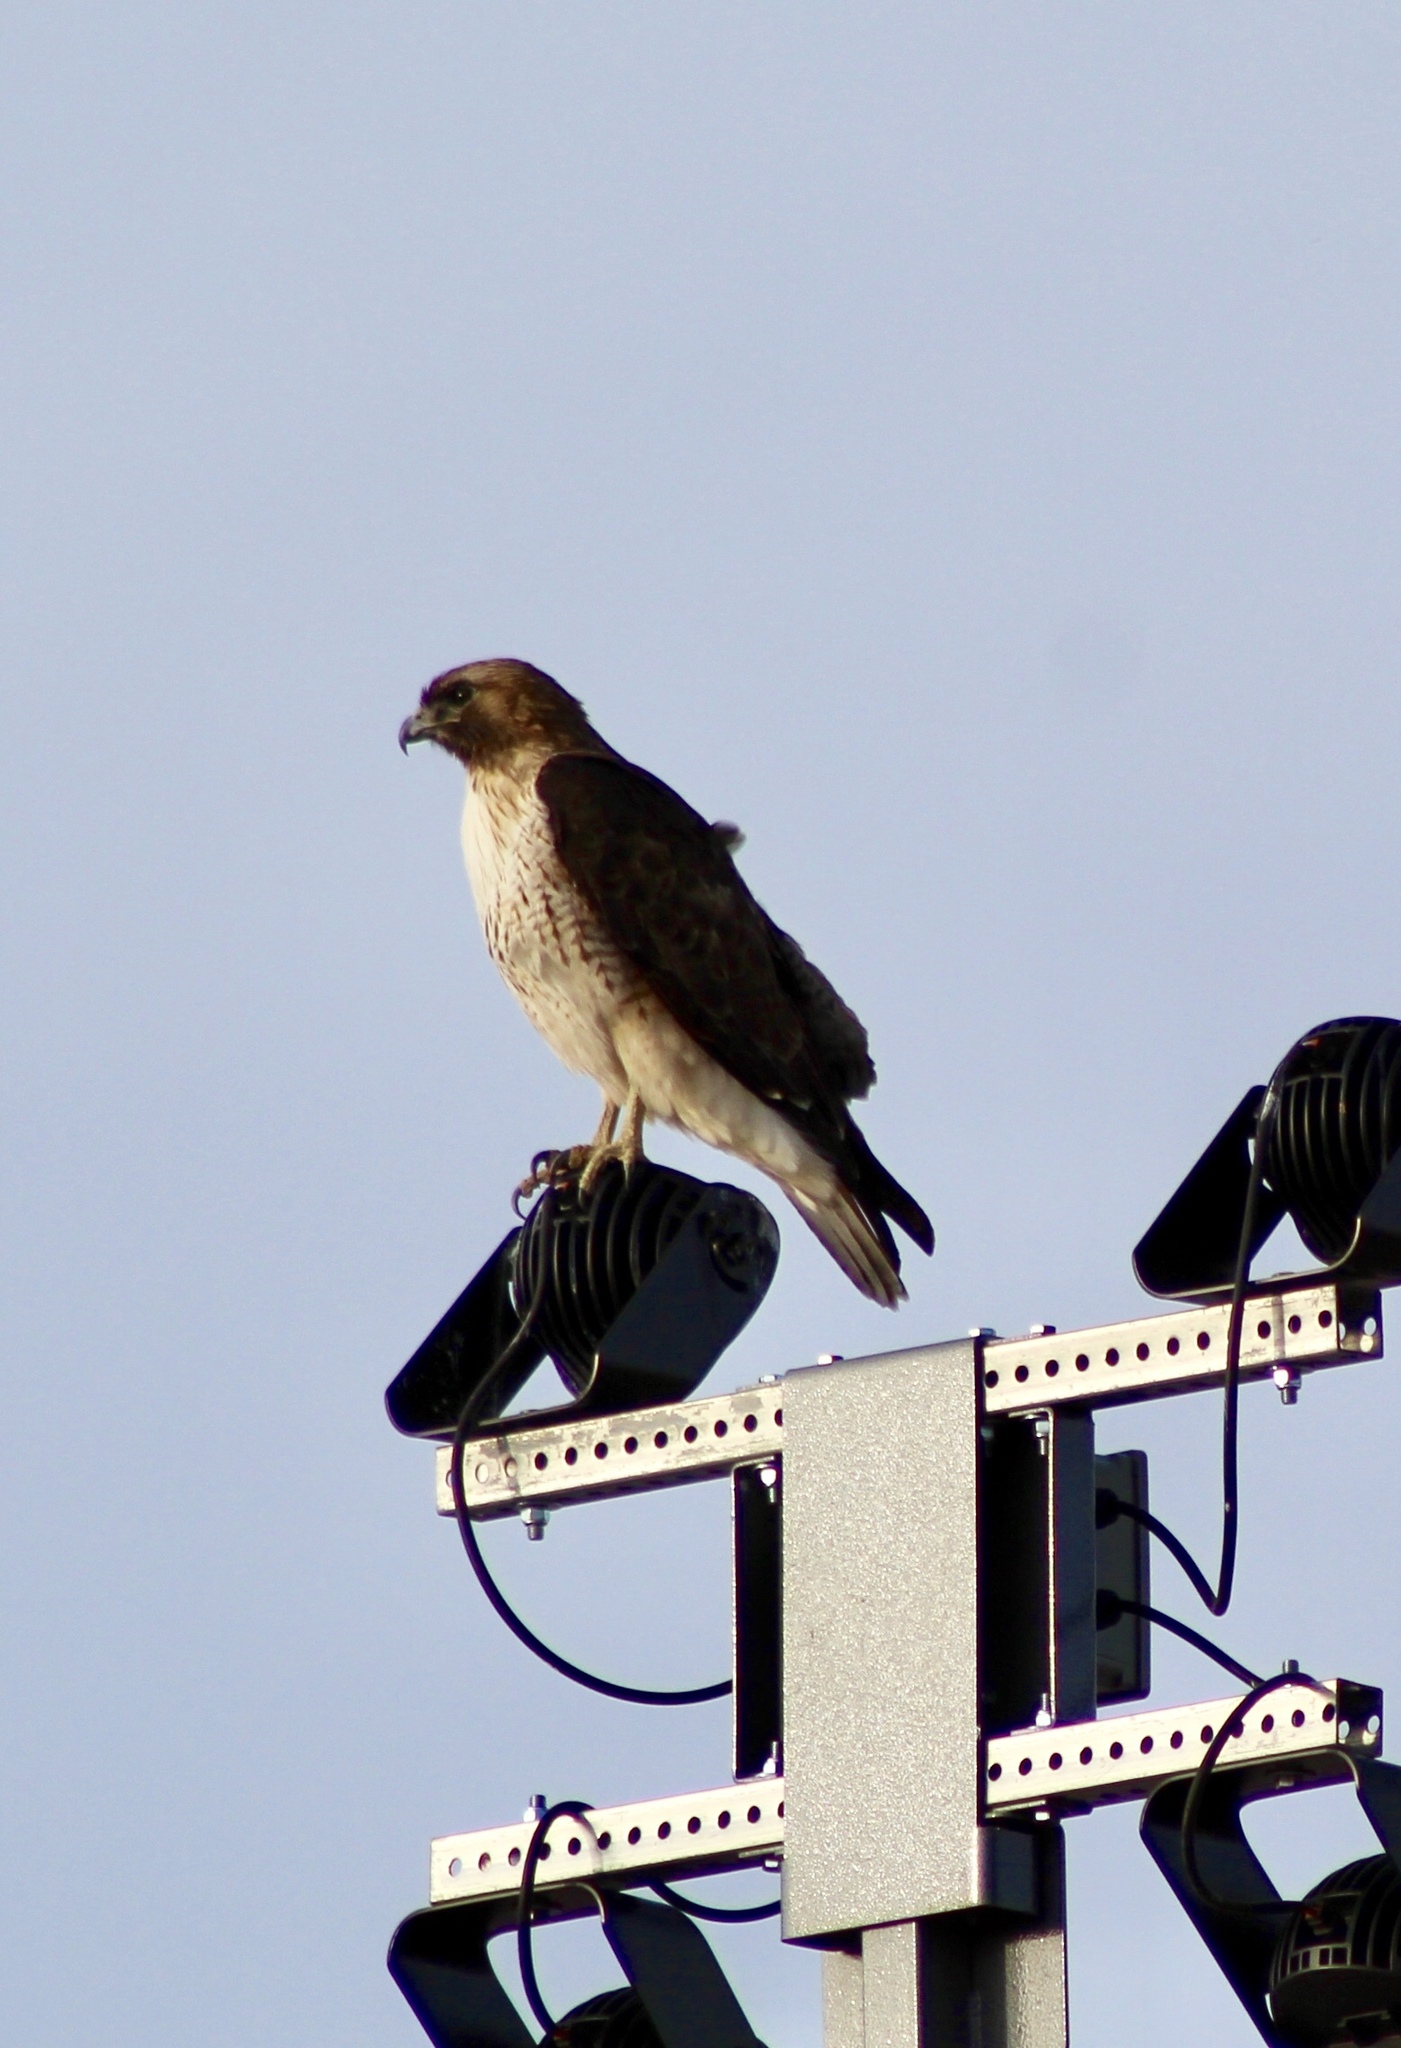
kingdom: Animalia
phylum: Chordata
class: Aves
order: Accipitriformes
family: Accipitridae
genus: Buteo
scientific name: Buteo jamaicensis
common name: Red-tailed hawk
